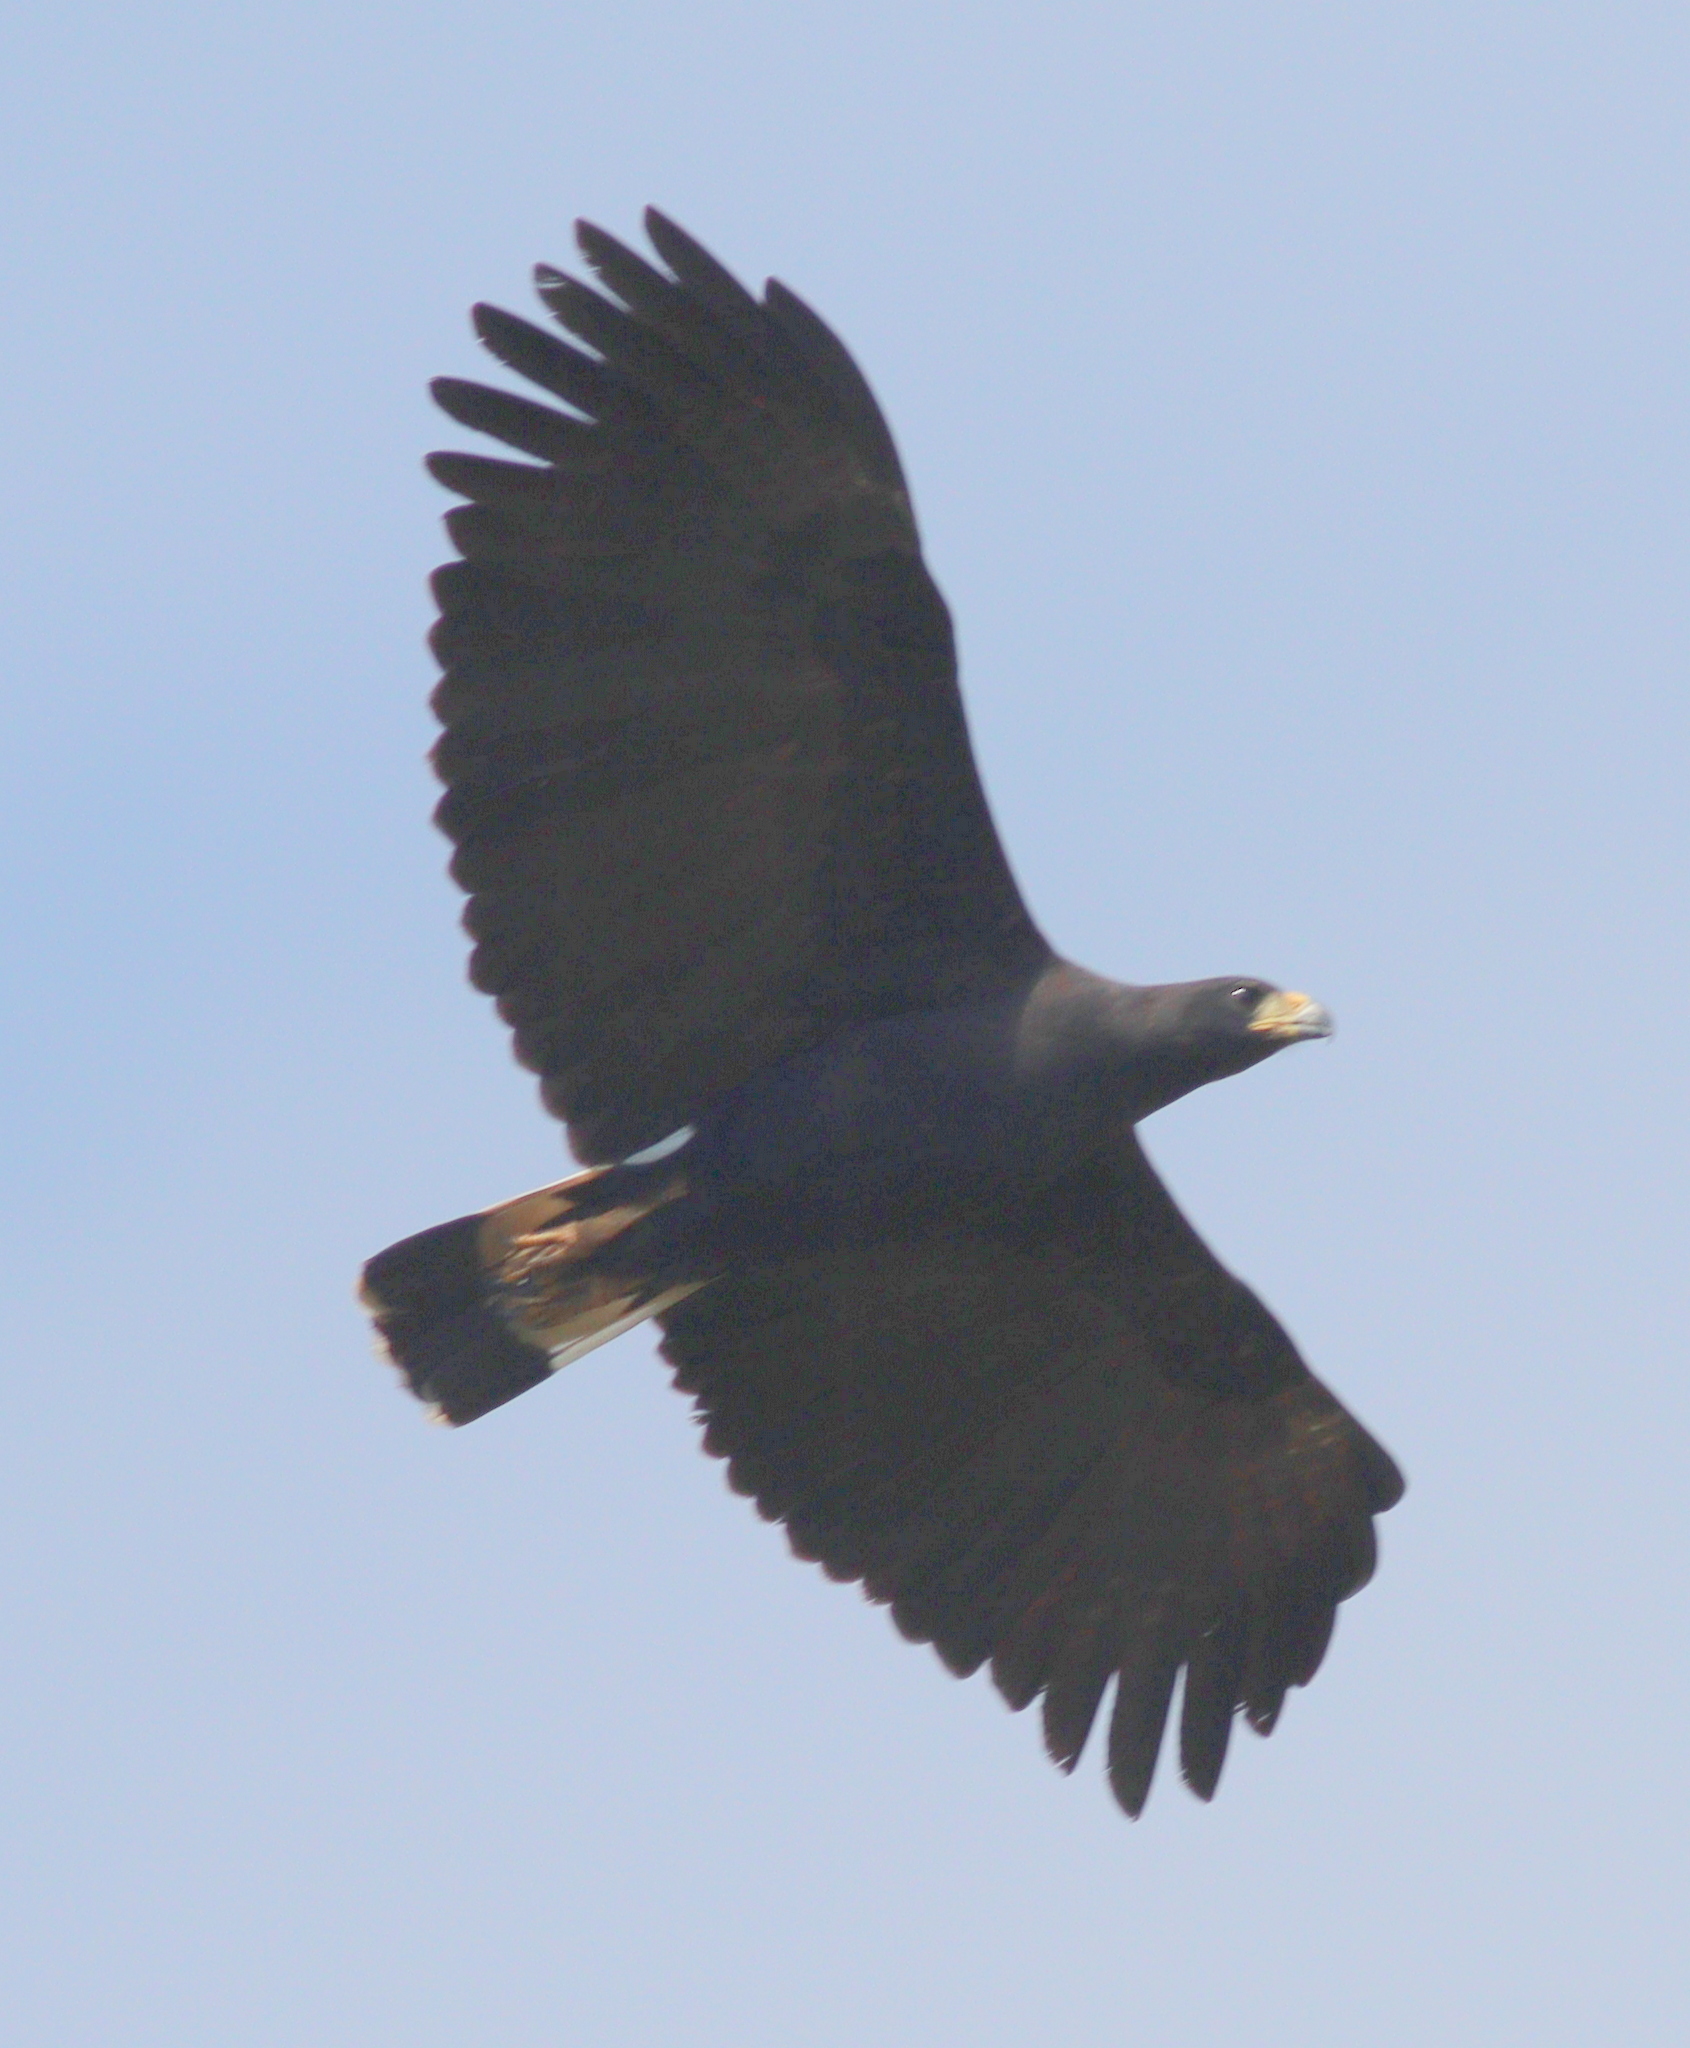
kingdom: Animalia
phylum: Chordata
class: Aves
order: Accipitriformes
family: Accipitridae
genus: Buteogallus
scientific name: Buteogallus urubitinga
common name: Great black hawk
